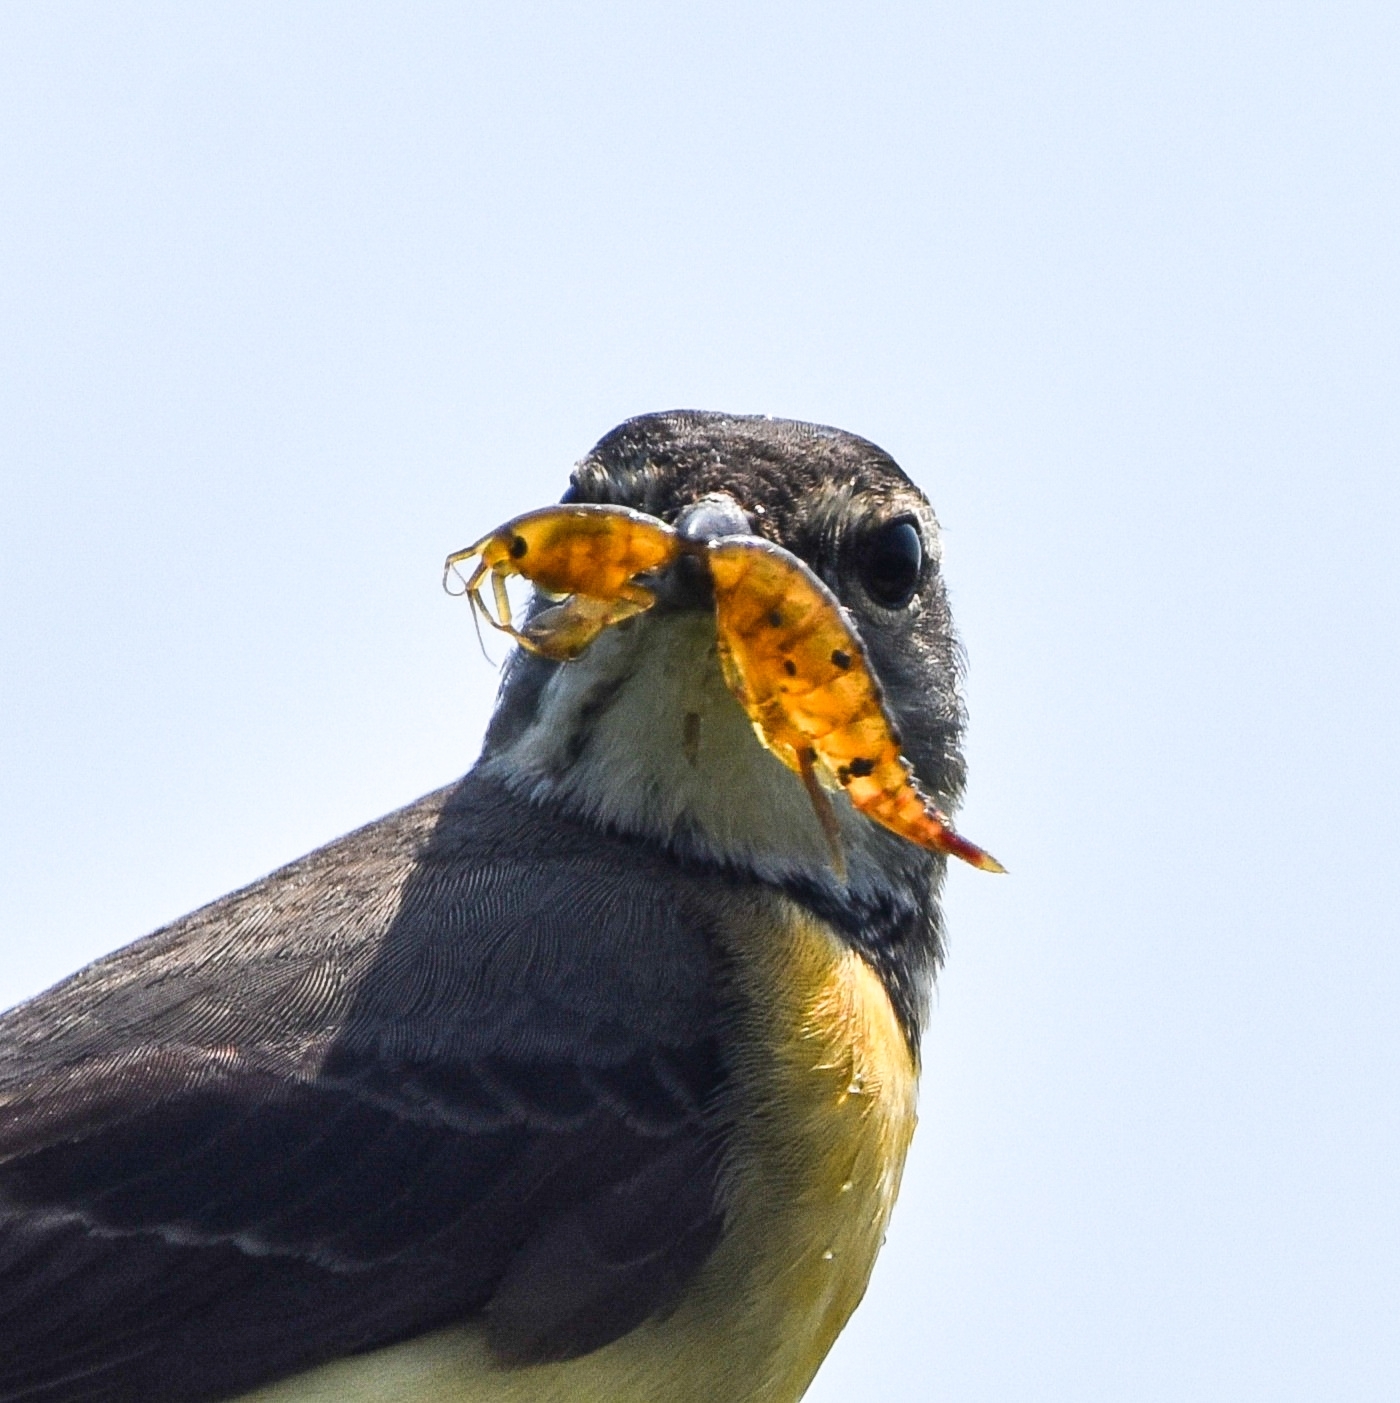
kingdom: Animalia
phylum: Chordata
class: Aves
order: Passeriformes
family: Motacillidae
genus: Motacilla
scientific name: Motacilla cinerea
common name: Grey wagtail
